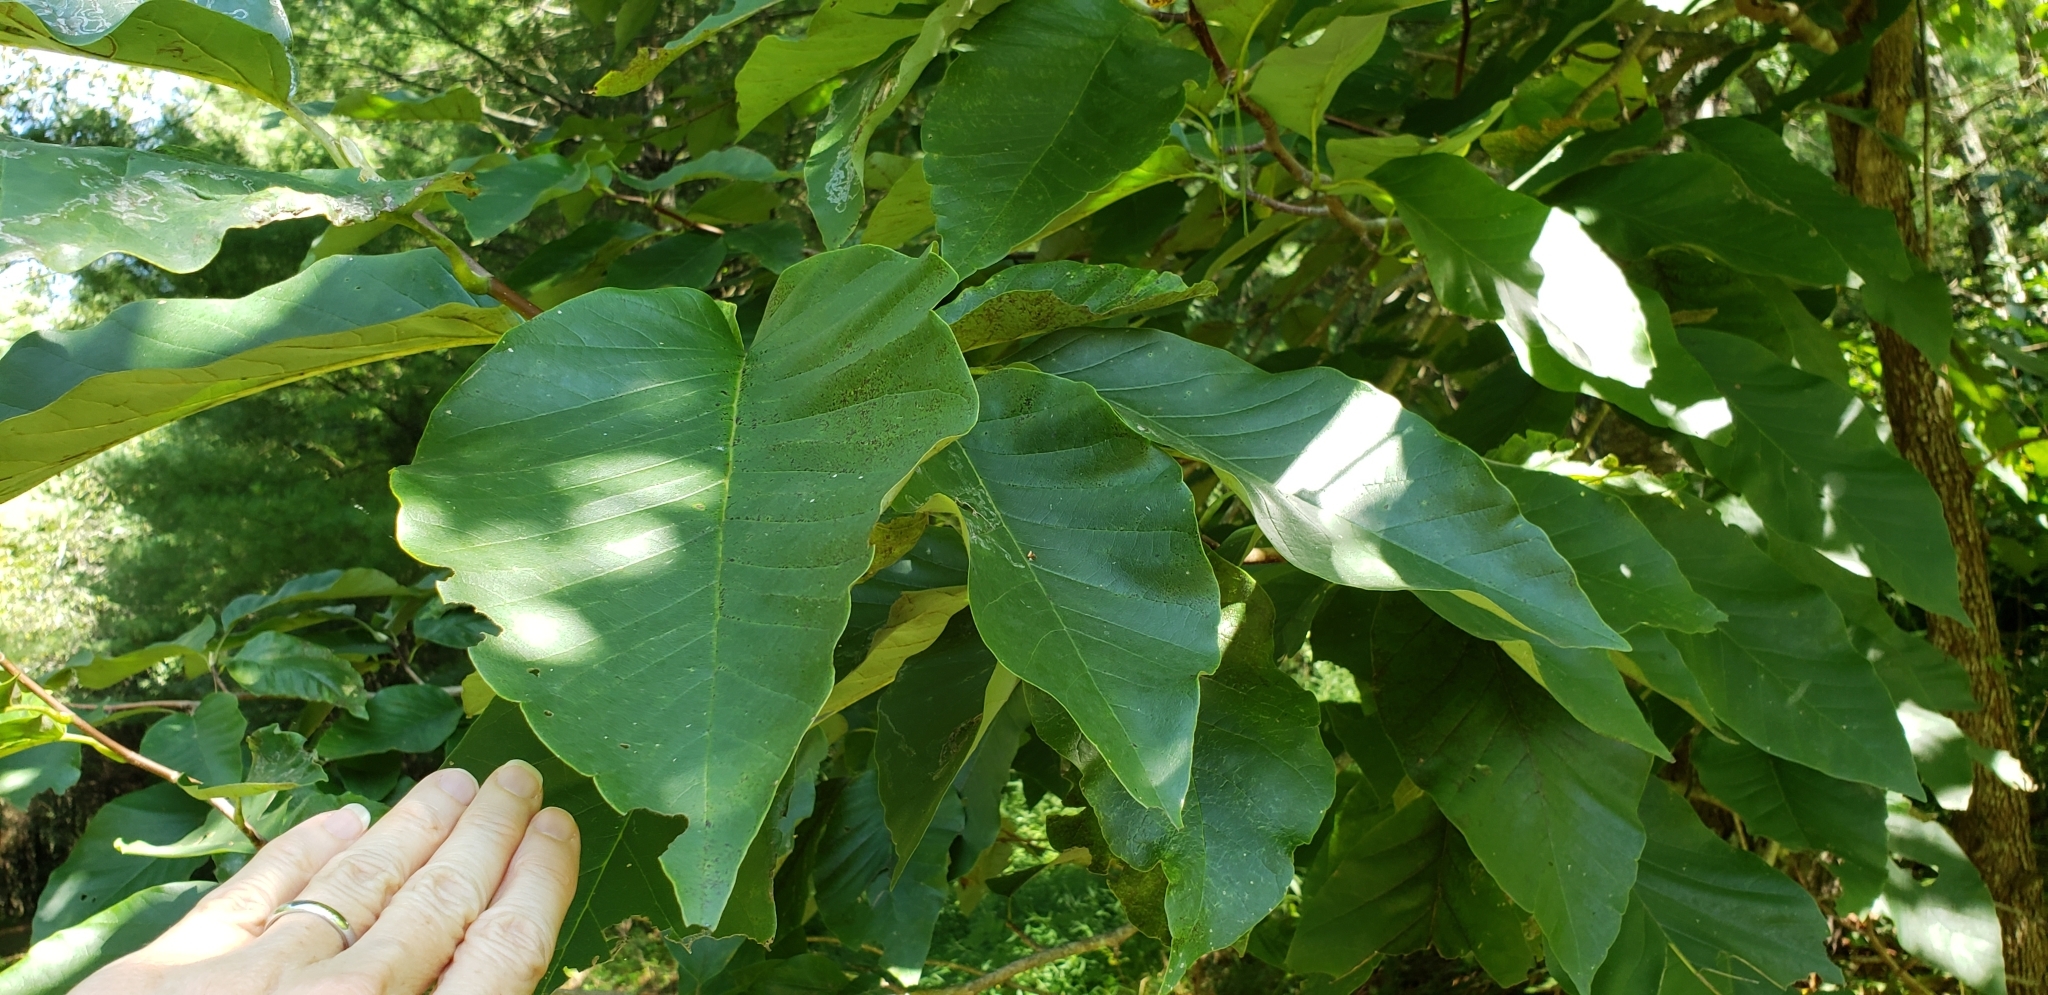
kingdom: Plantae
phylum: Tracheophyta
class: Magnoliopsida
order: Magnoliales
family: Magnoliaceae
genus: Magnolia
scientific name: Magnolia acuminata
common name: Cucumber magnolia
